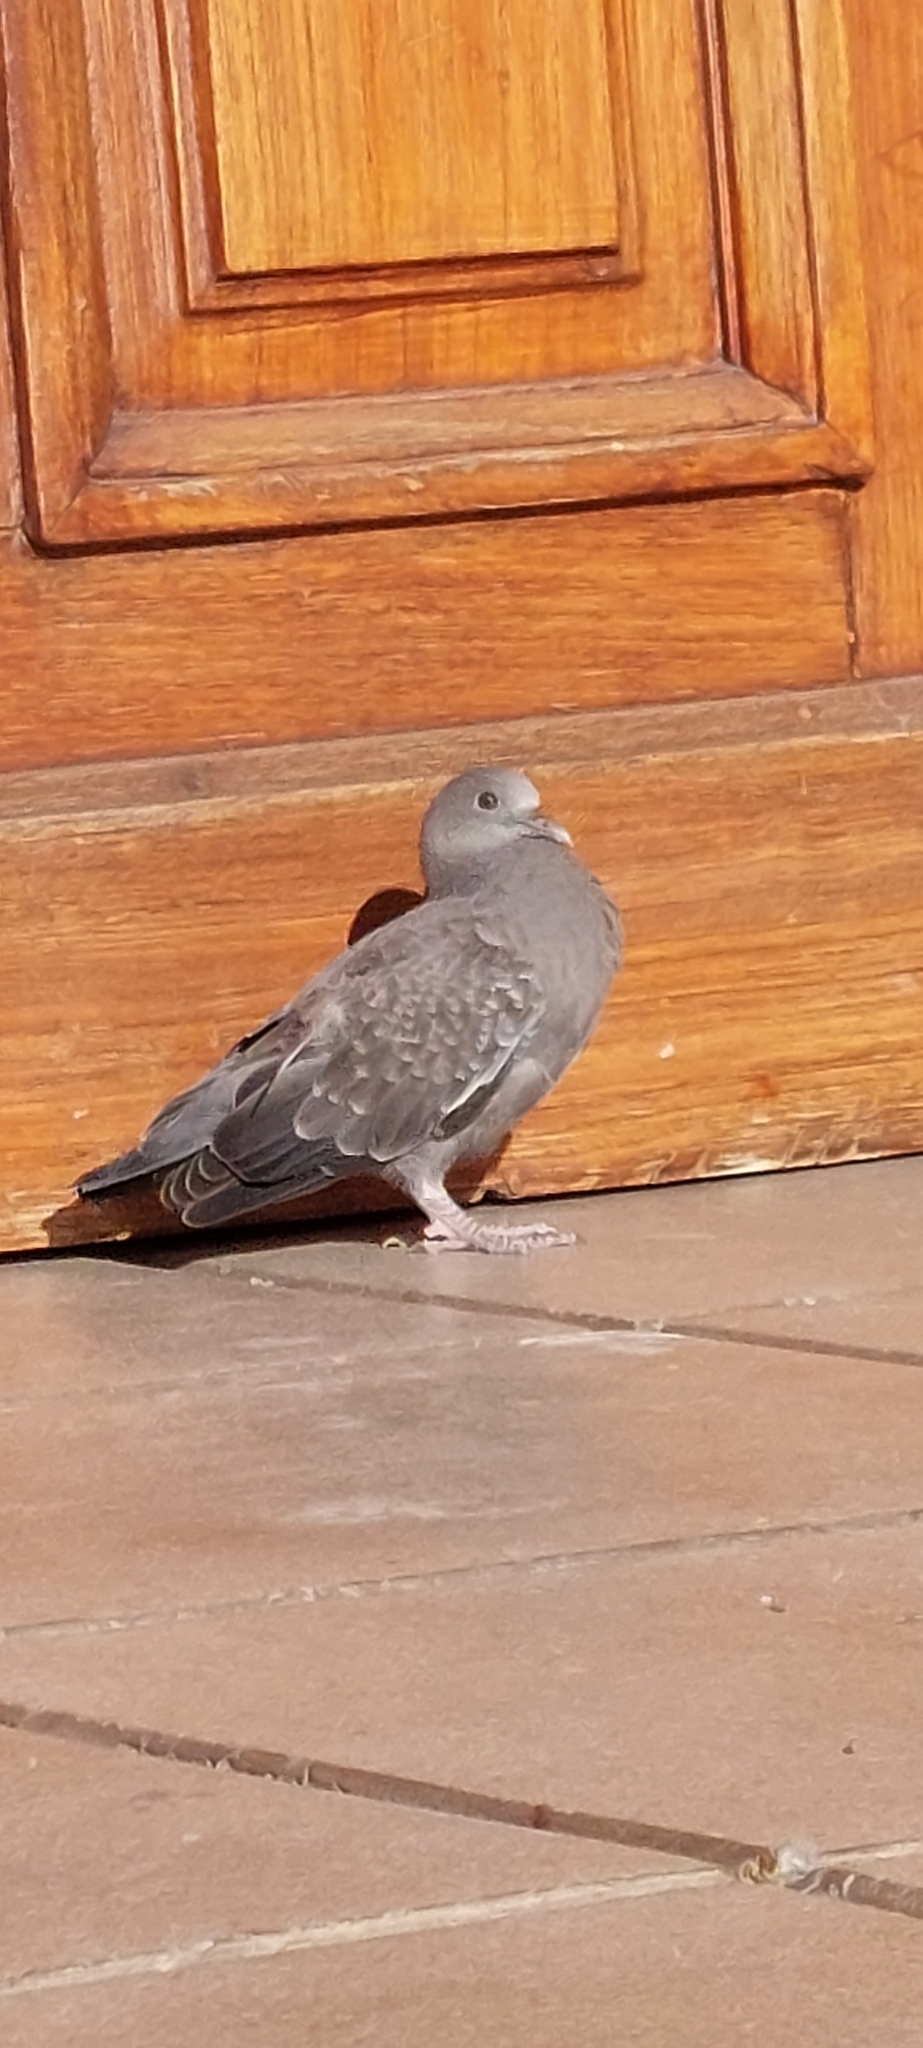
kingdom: Animalia
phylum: Chordata
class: Aves
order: Columbiformes
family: Columbidae
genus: Patagioenas
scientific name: Patagioenas maculosa
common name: Spot-winged pigeon
